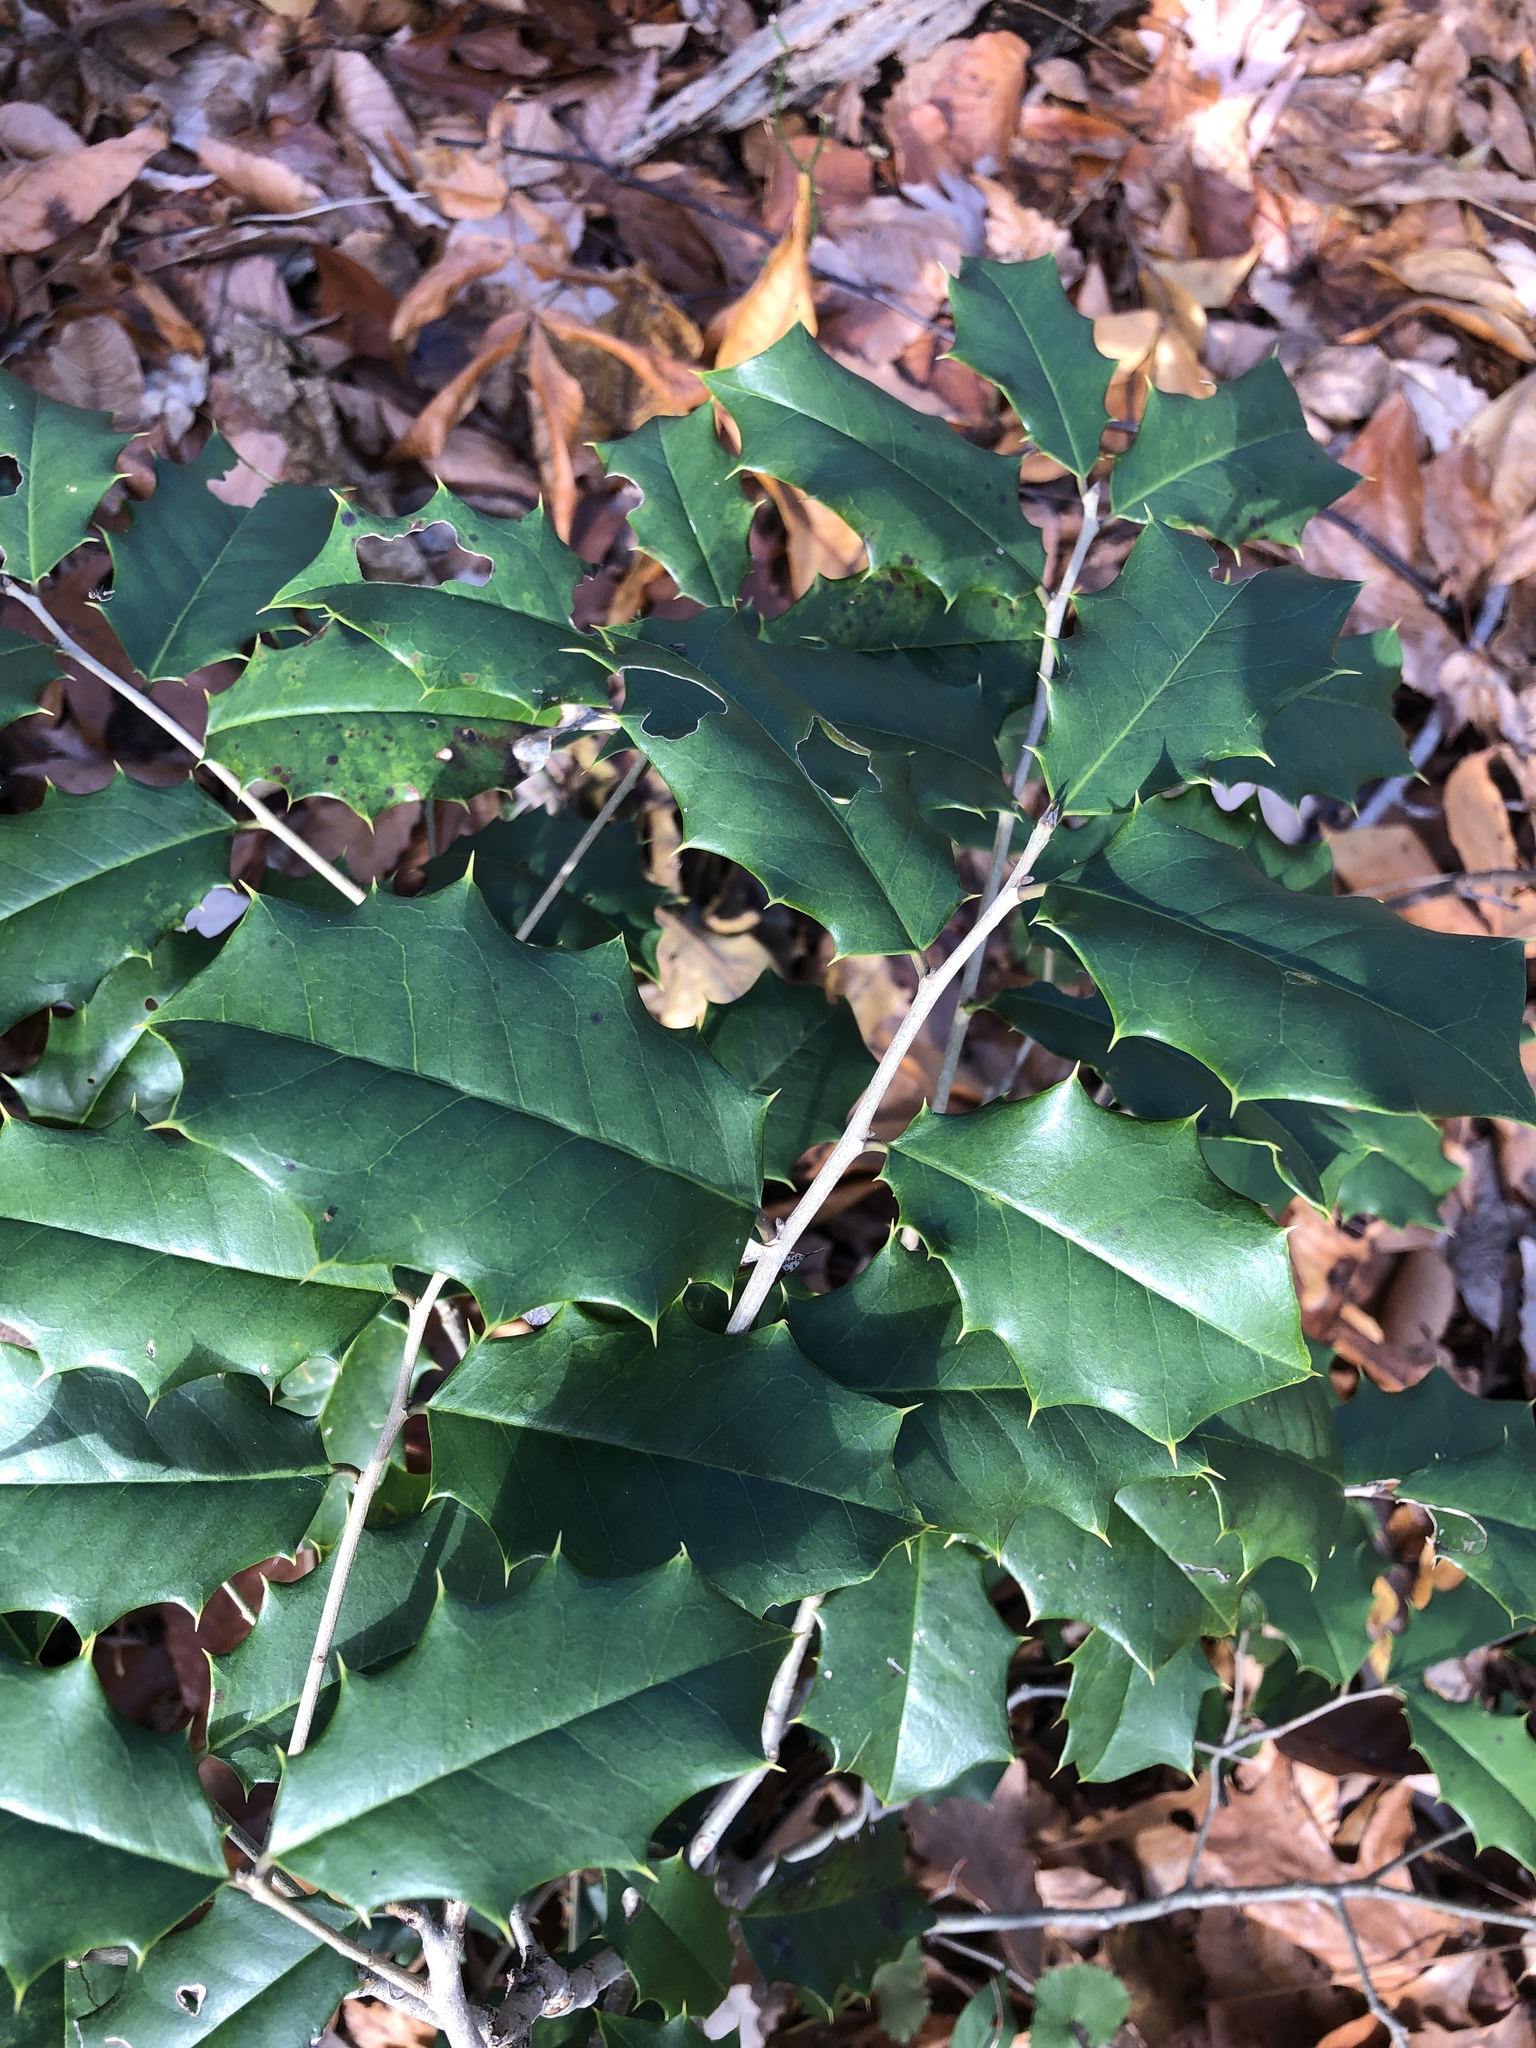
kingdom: Plantae
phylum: Tracheophyta
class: Magnoliopsida
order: Aquifoliales
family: Aquifoliaceae
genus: Ilex
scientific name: Ilex opaca
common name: American holly
